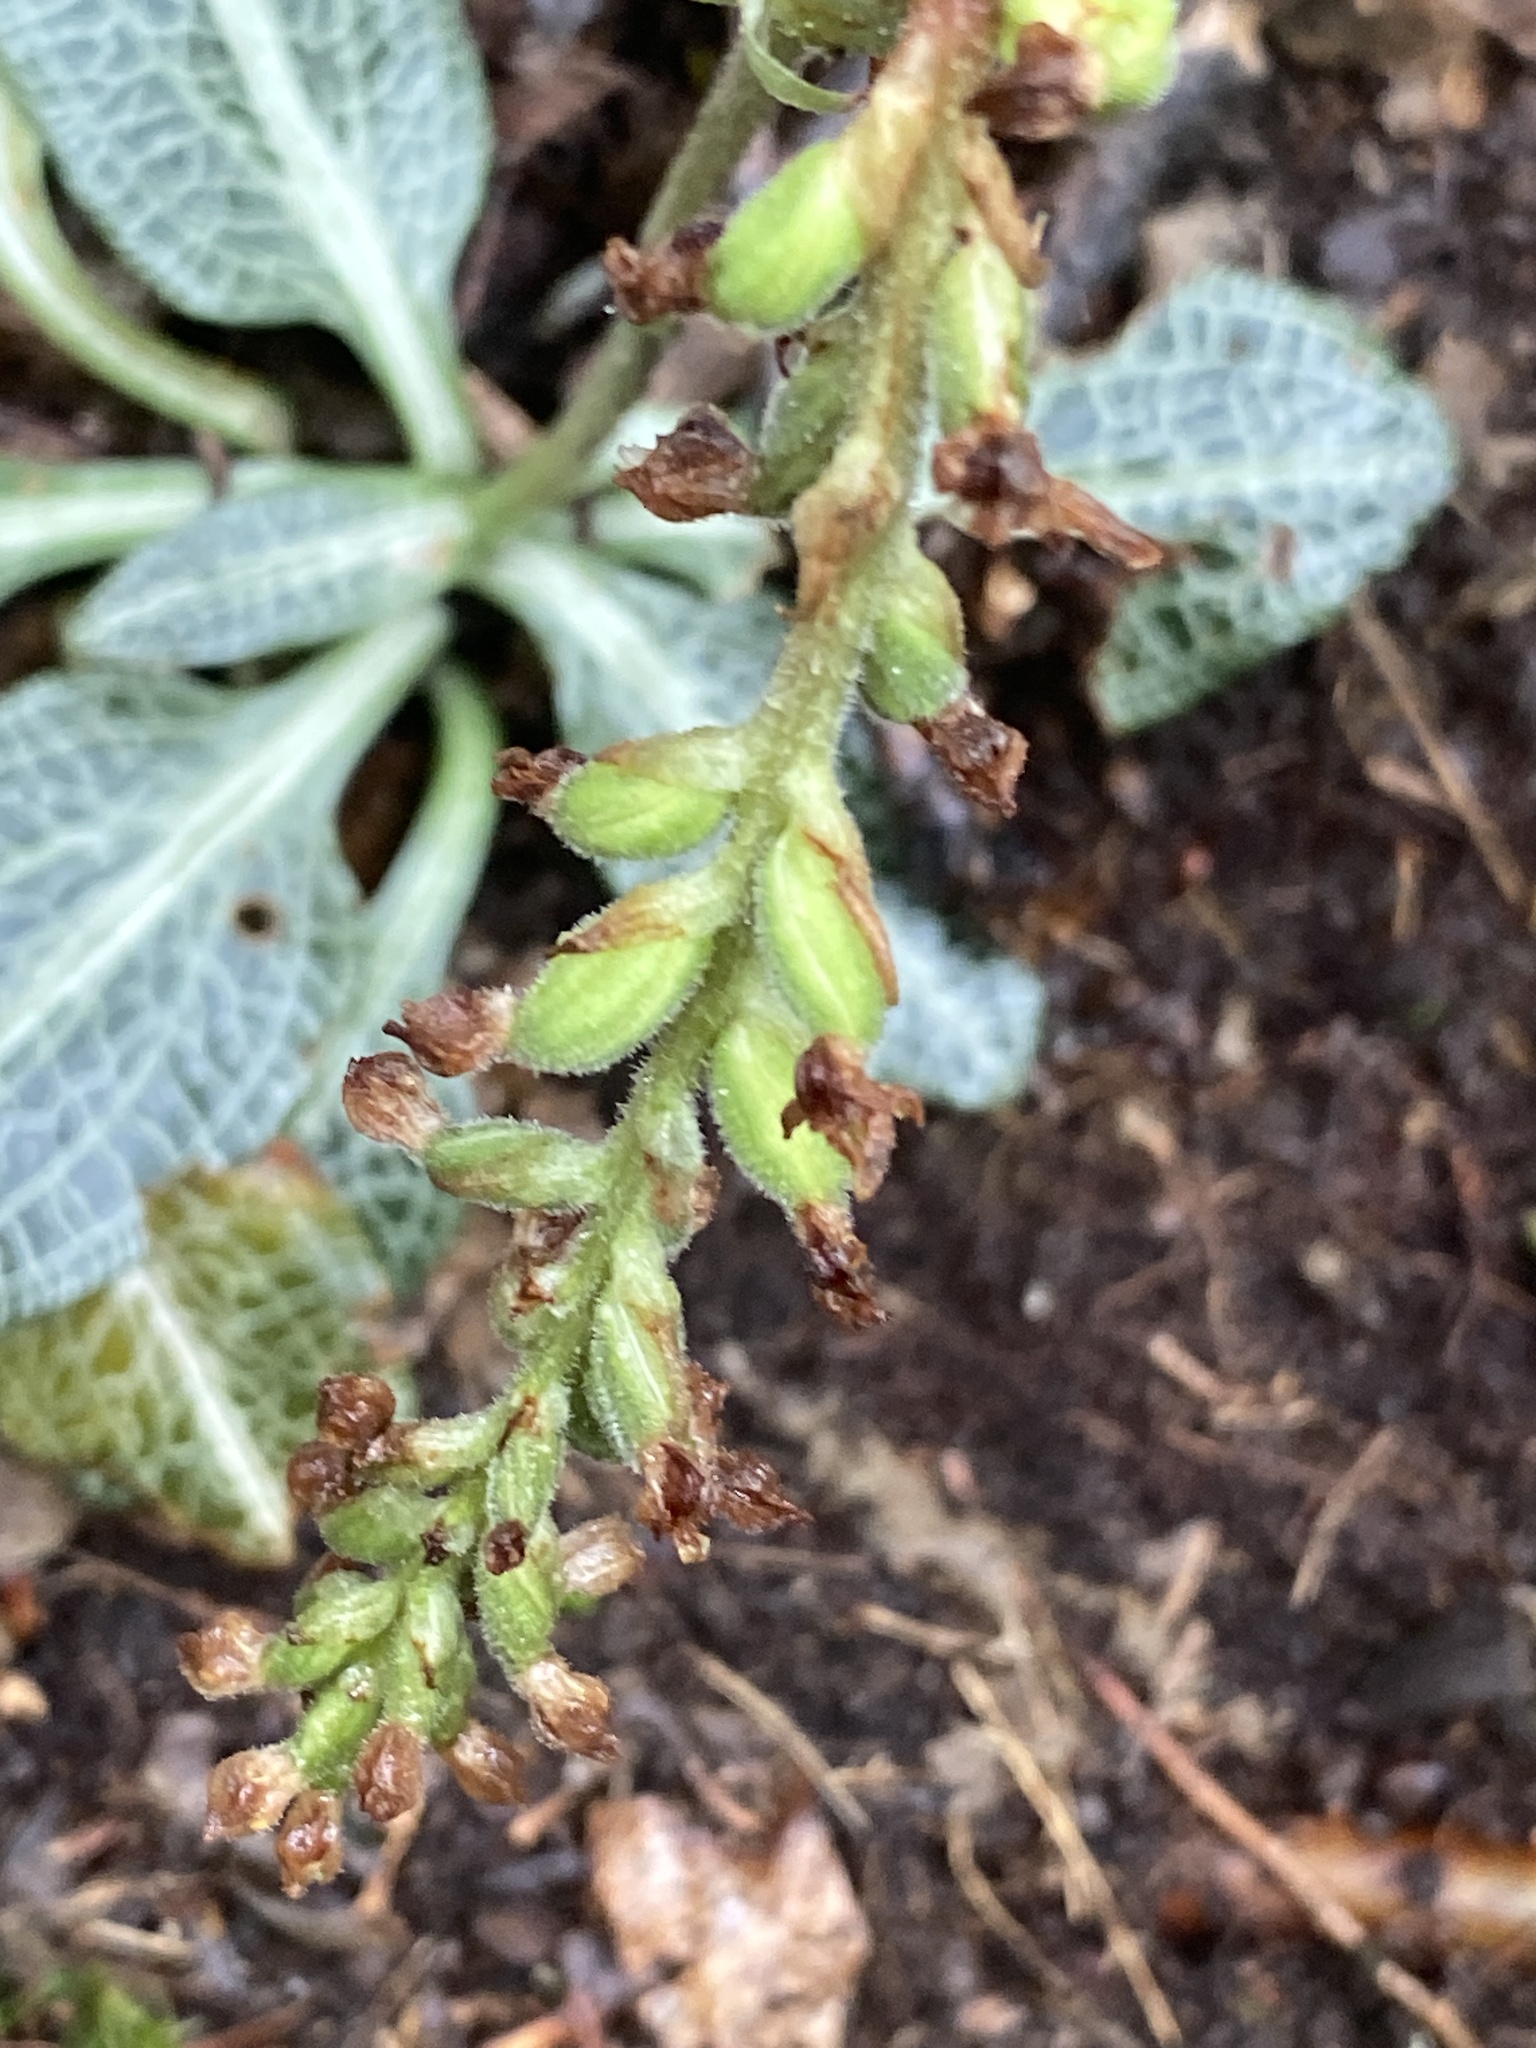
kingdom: Plantae
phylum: Tracheophyta
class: Liliopsida
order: Asparagales
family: Orchidaceae
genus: Goodyera
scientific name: Goodyera pubescens
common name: Downy rattlesnake-plantain
